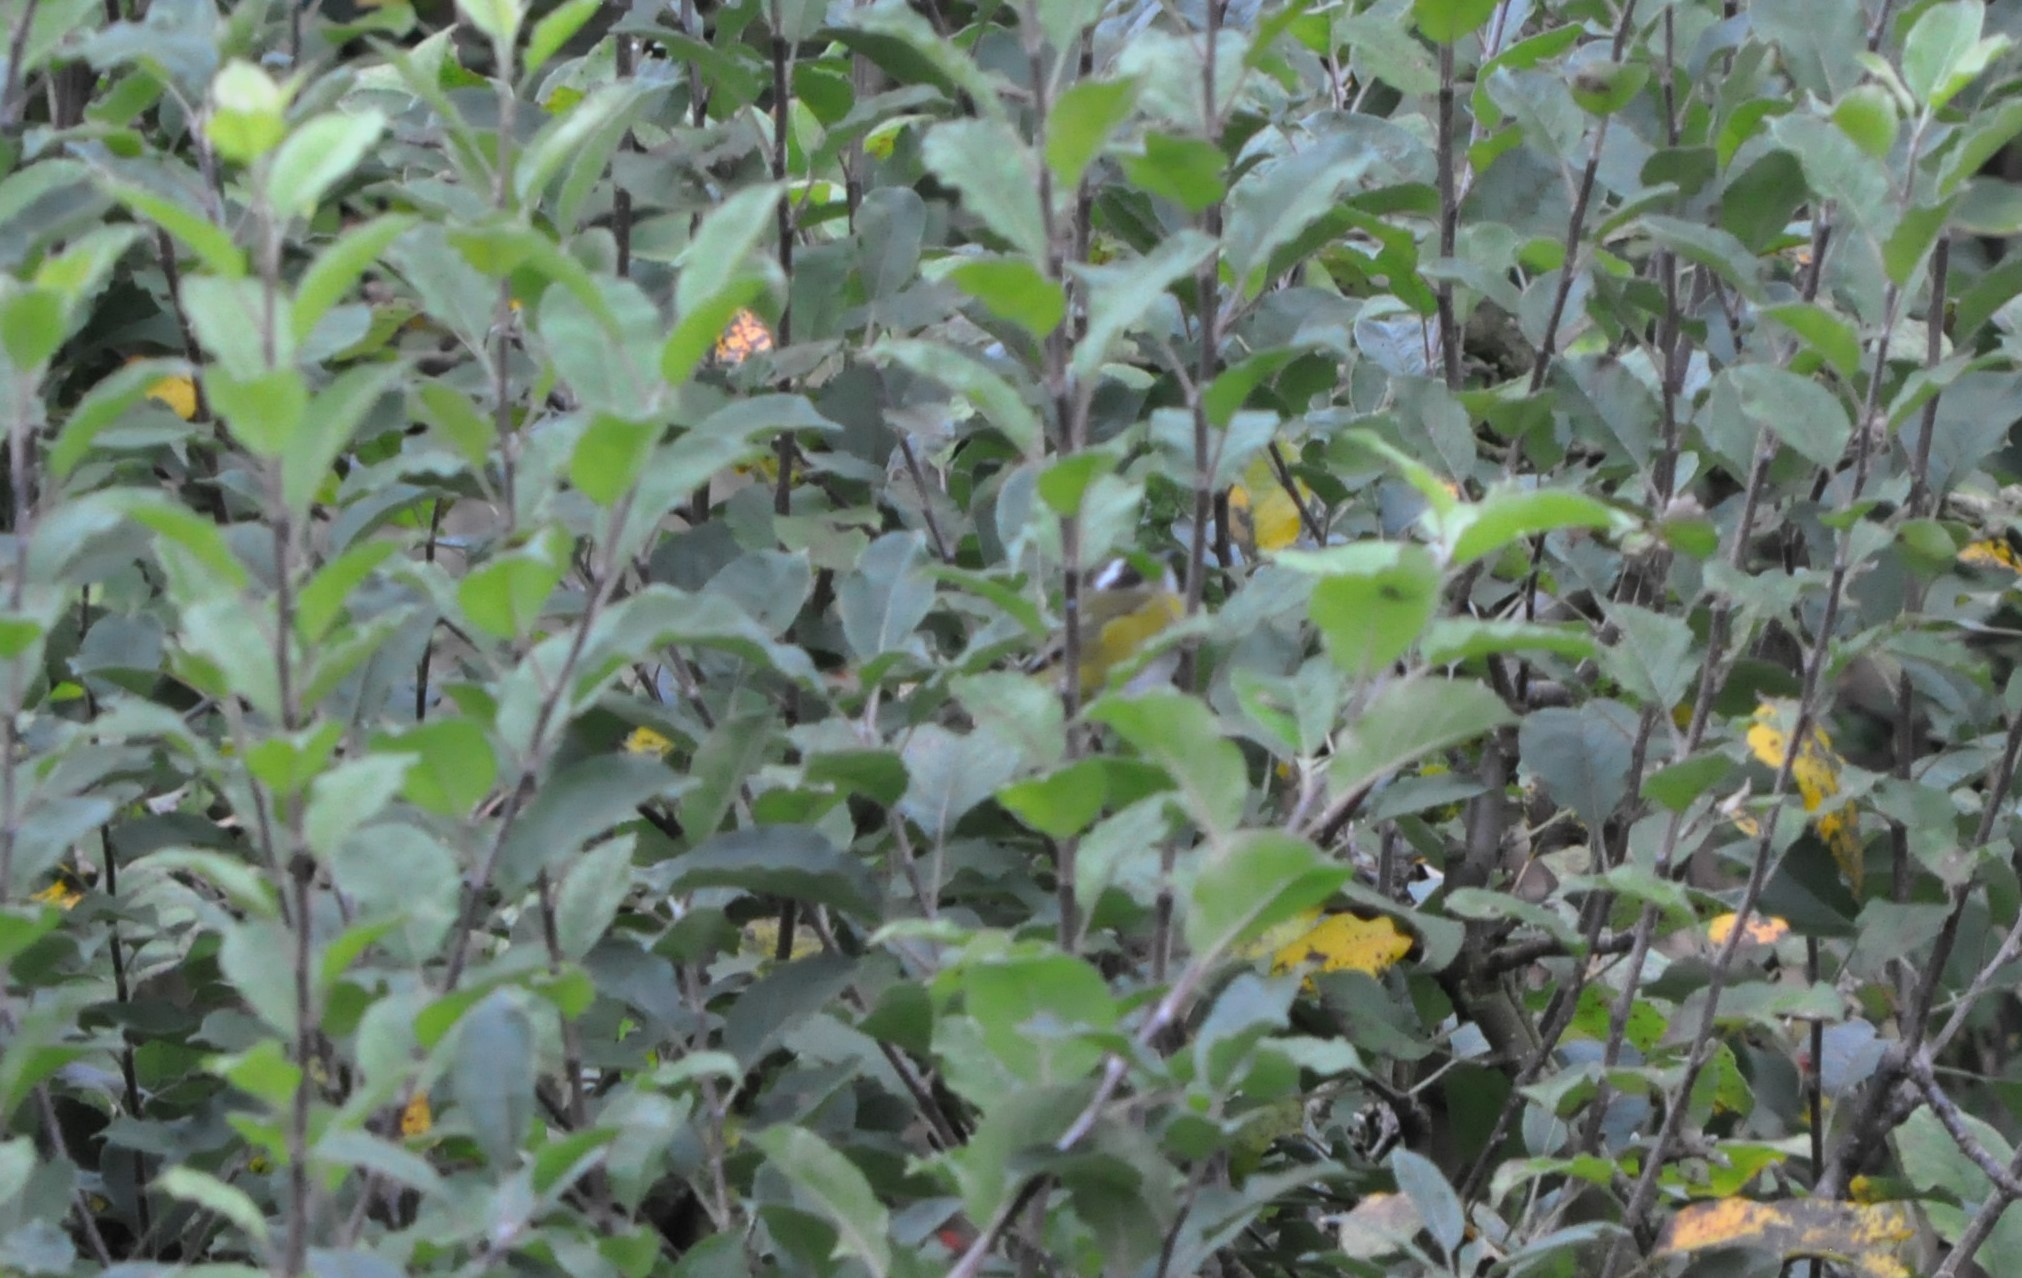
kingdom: Animalia
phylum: Chordata
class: Aves
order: Passeriformes
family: Parulidae
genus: Basileuterus
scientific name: Basileuterus melanogenys
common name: Black-cheeked warbler
